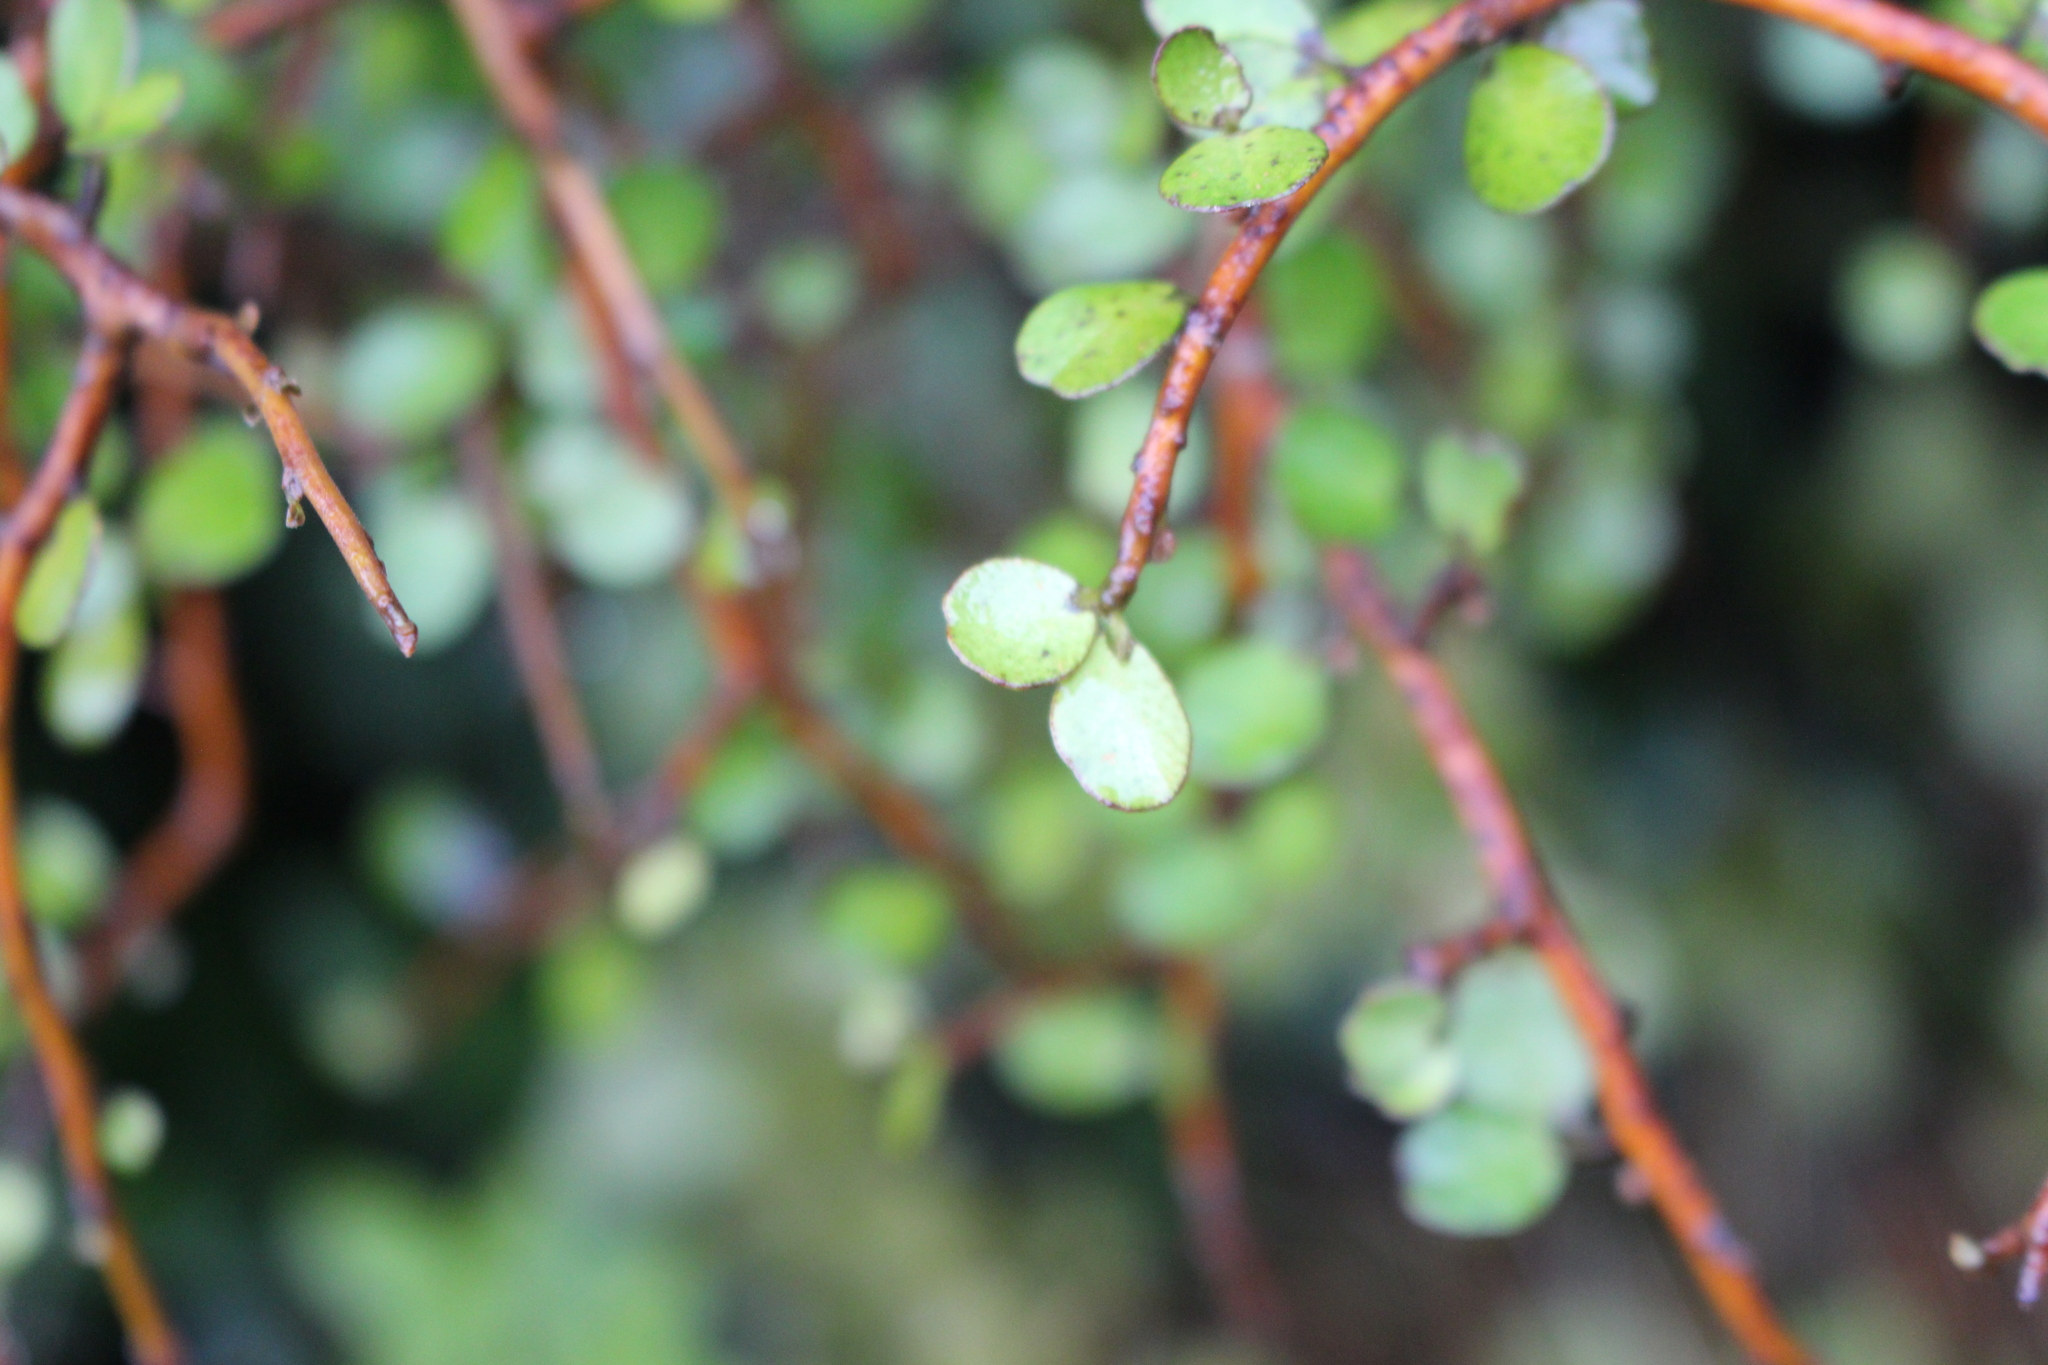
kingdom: Plantae
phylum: Tracheophyta
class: Magnoliopsida
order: Ericales
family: Primulaceae
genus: Myrsine
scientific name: Myrsine divaricata
